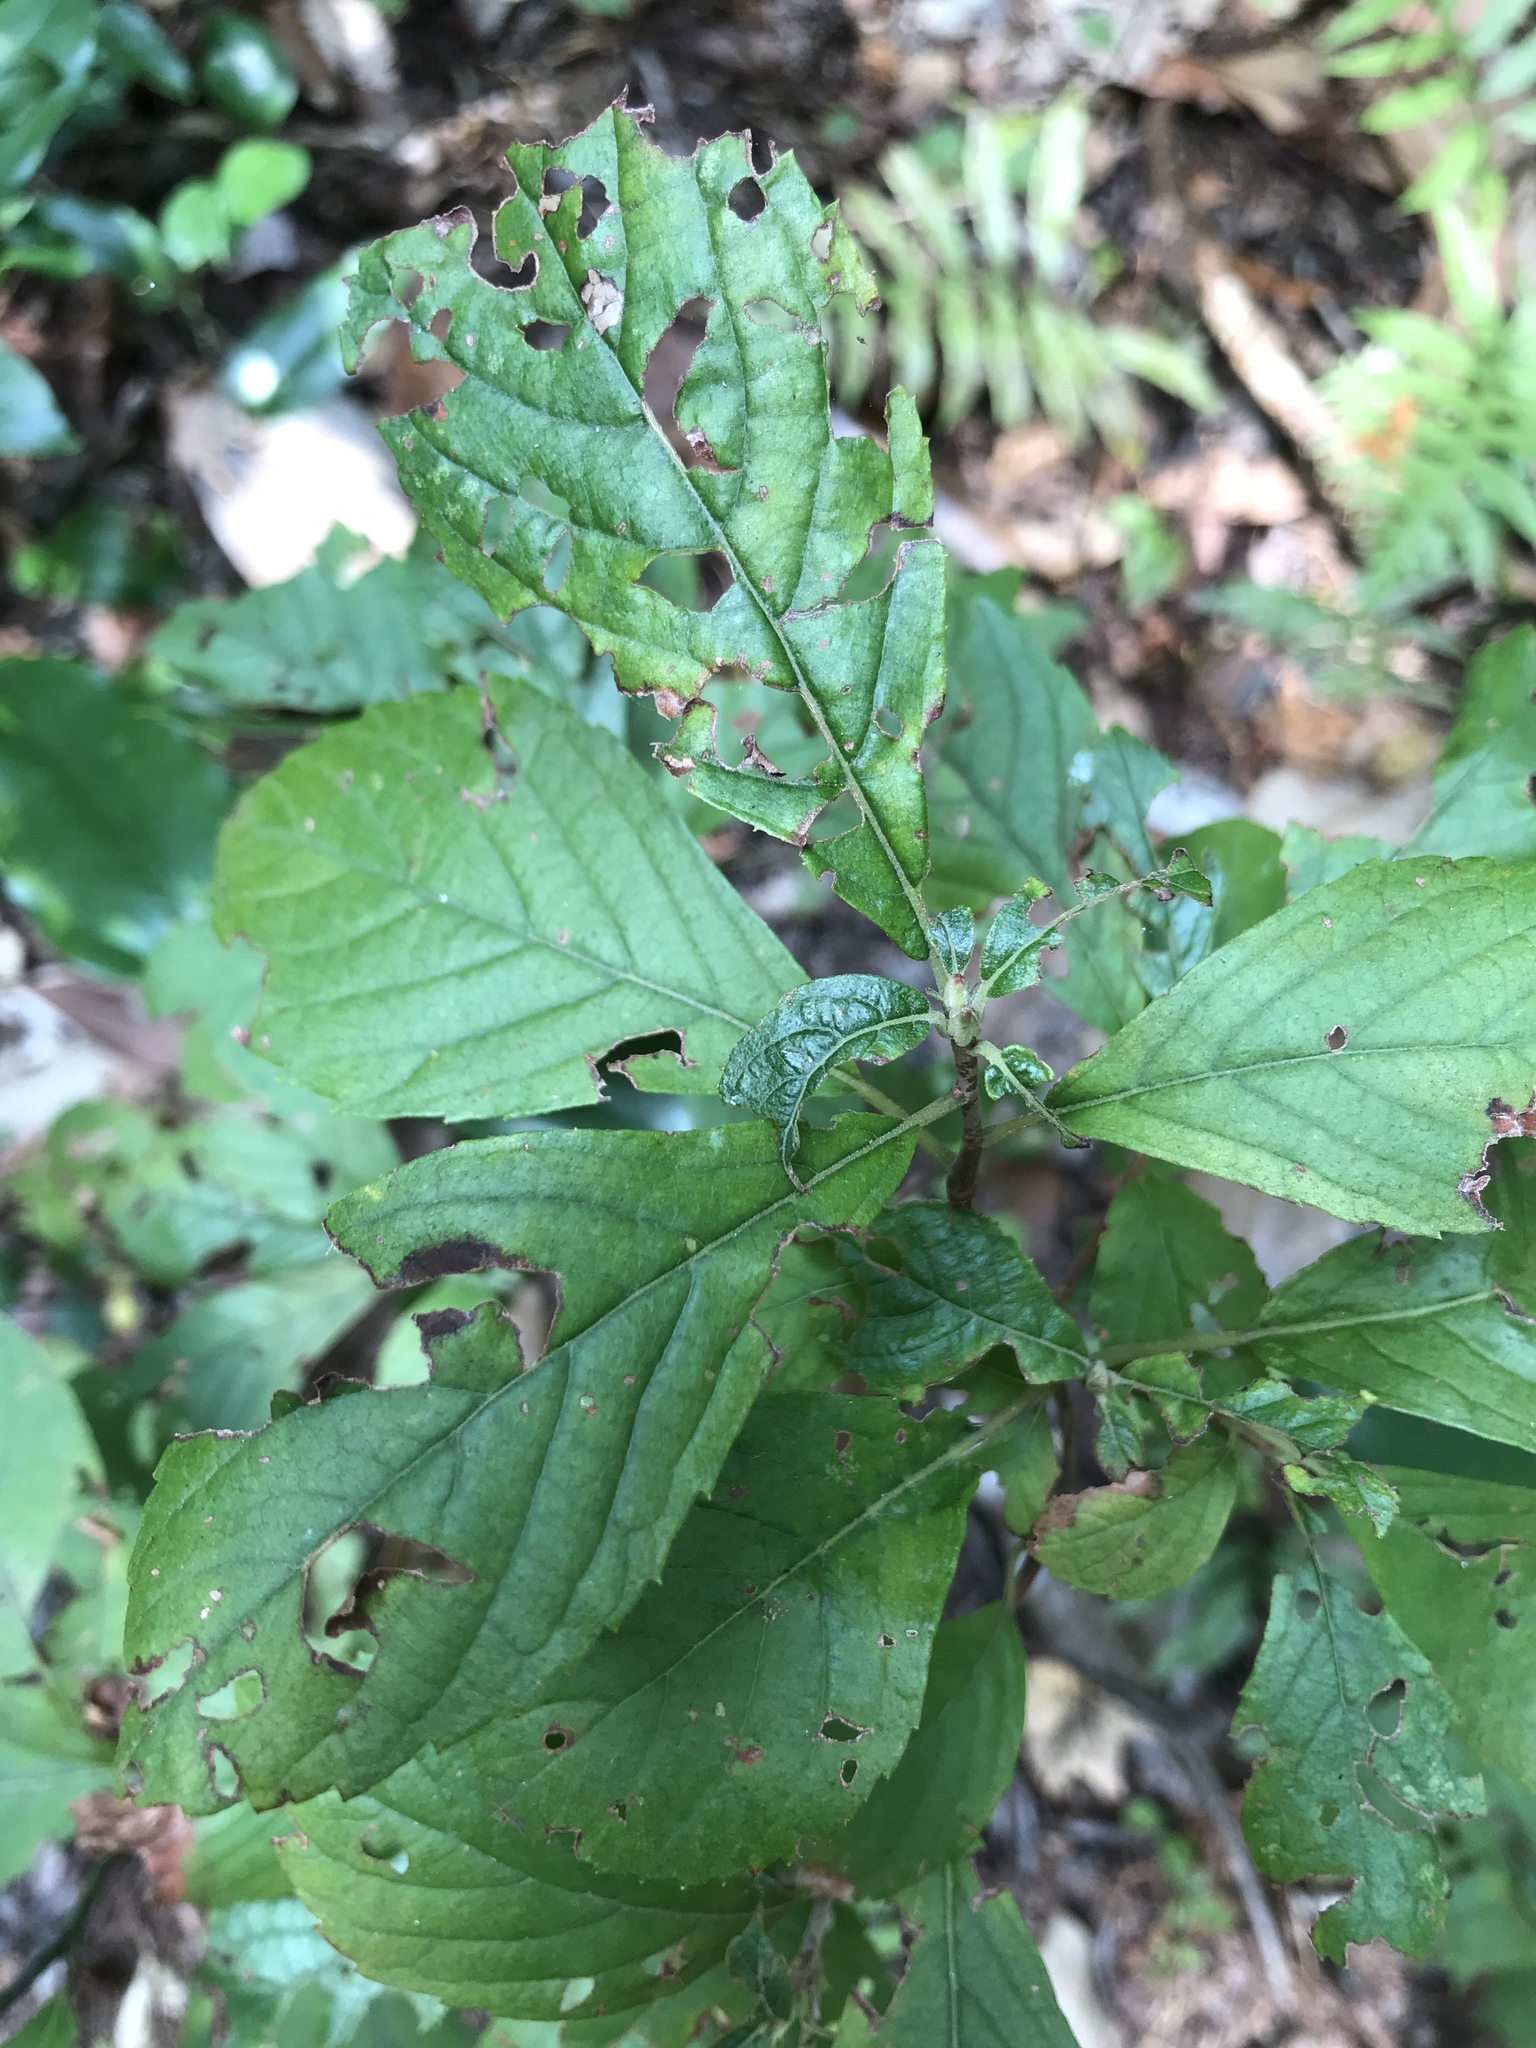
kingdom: Plantae
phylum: Tracheophyta
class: Magnoliopsida
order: Ericales
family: Clethraceae
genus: Clethra
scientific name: Clethra alnifolia
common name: Sweet pepperbush
